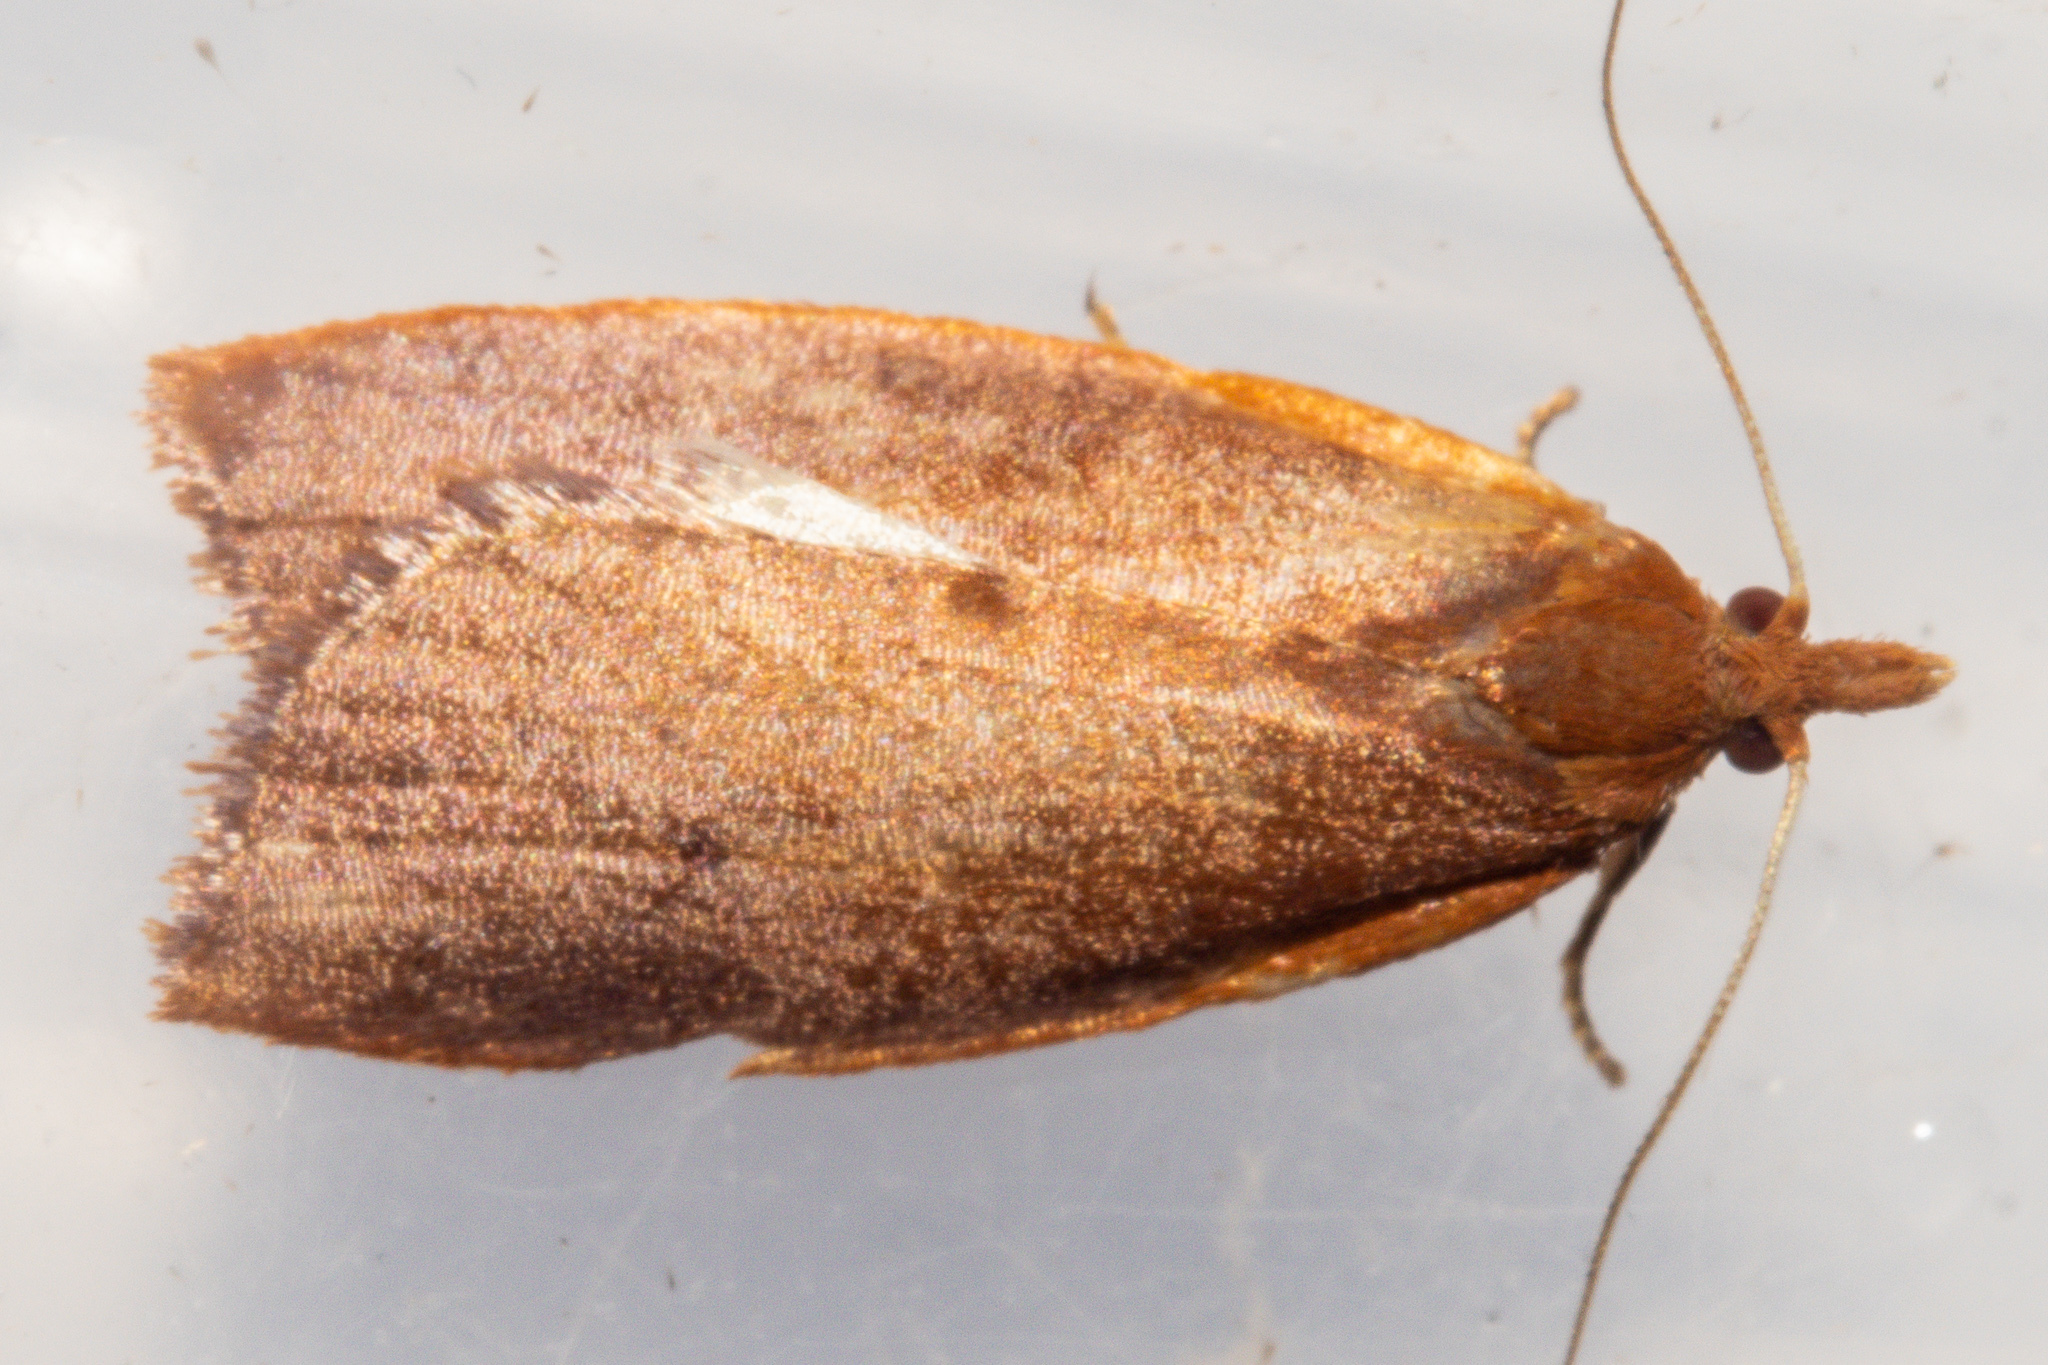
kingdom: Animalia
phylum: Arthropoda
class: Insecta
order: Lepidoptera
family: Oecophoridae
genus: Proteodes
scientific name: Proteodes smithi
